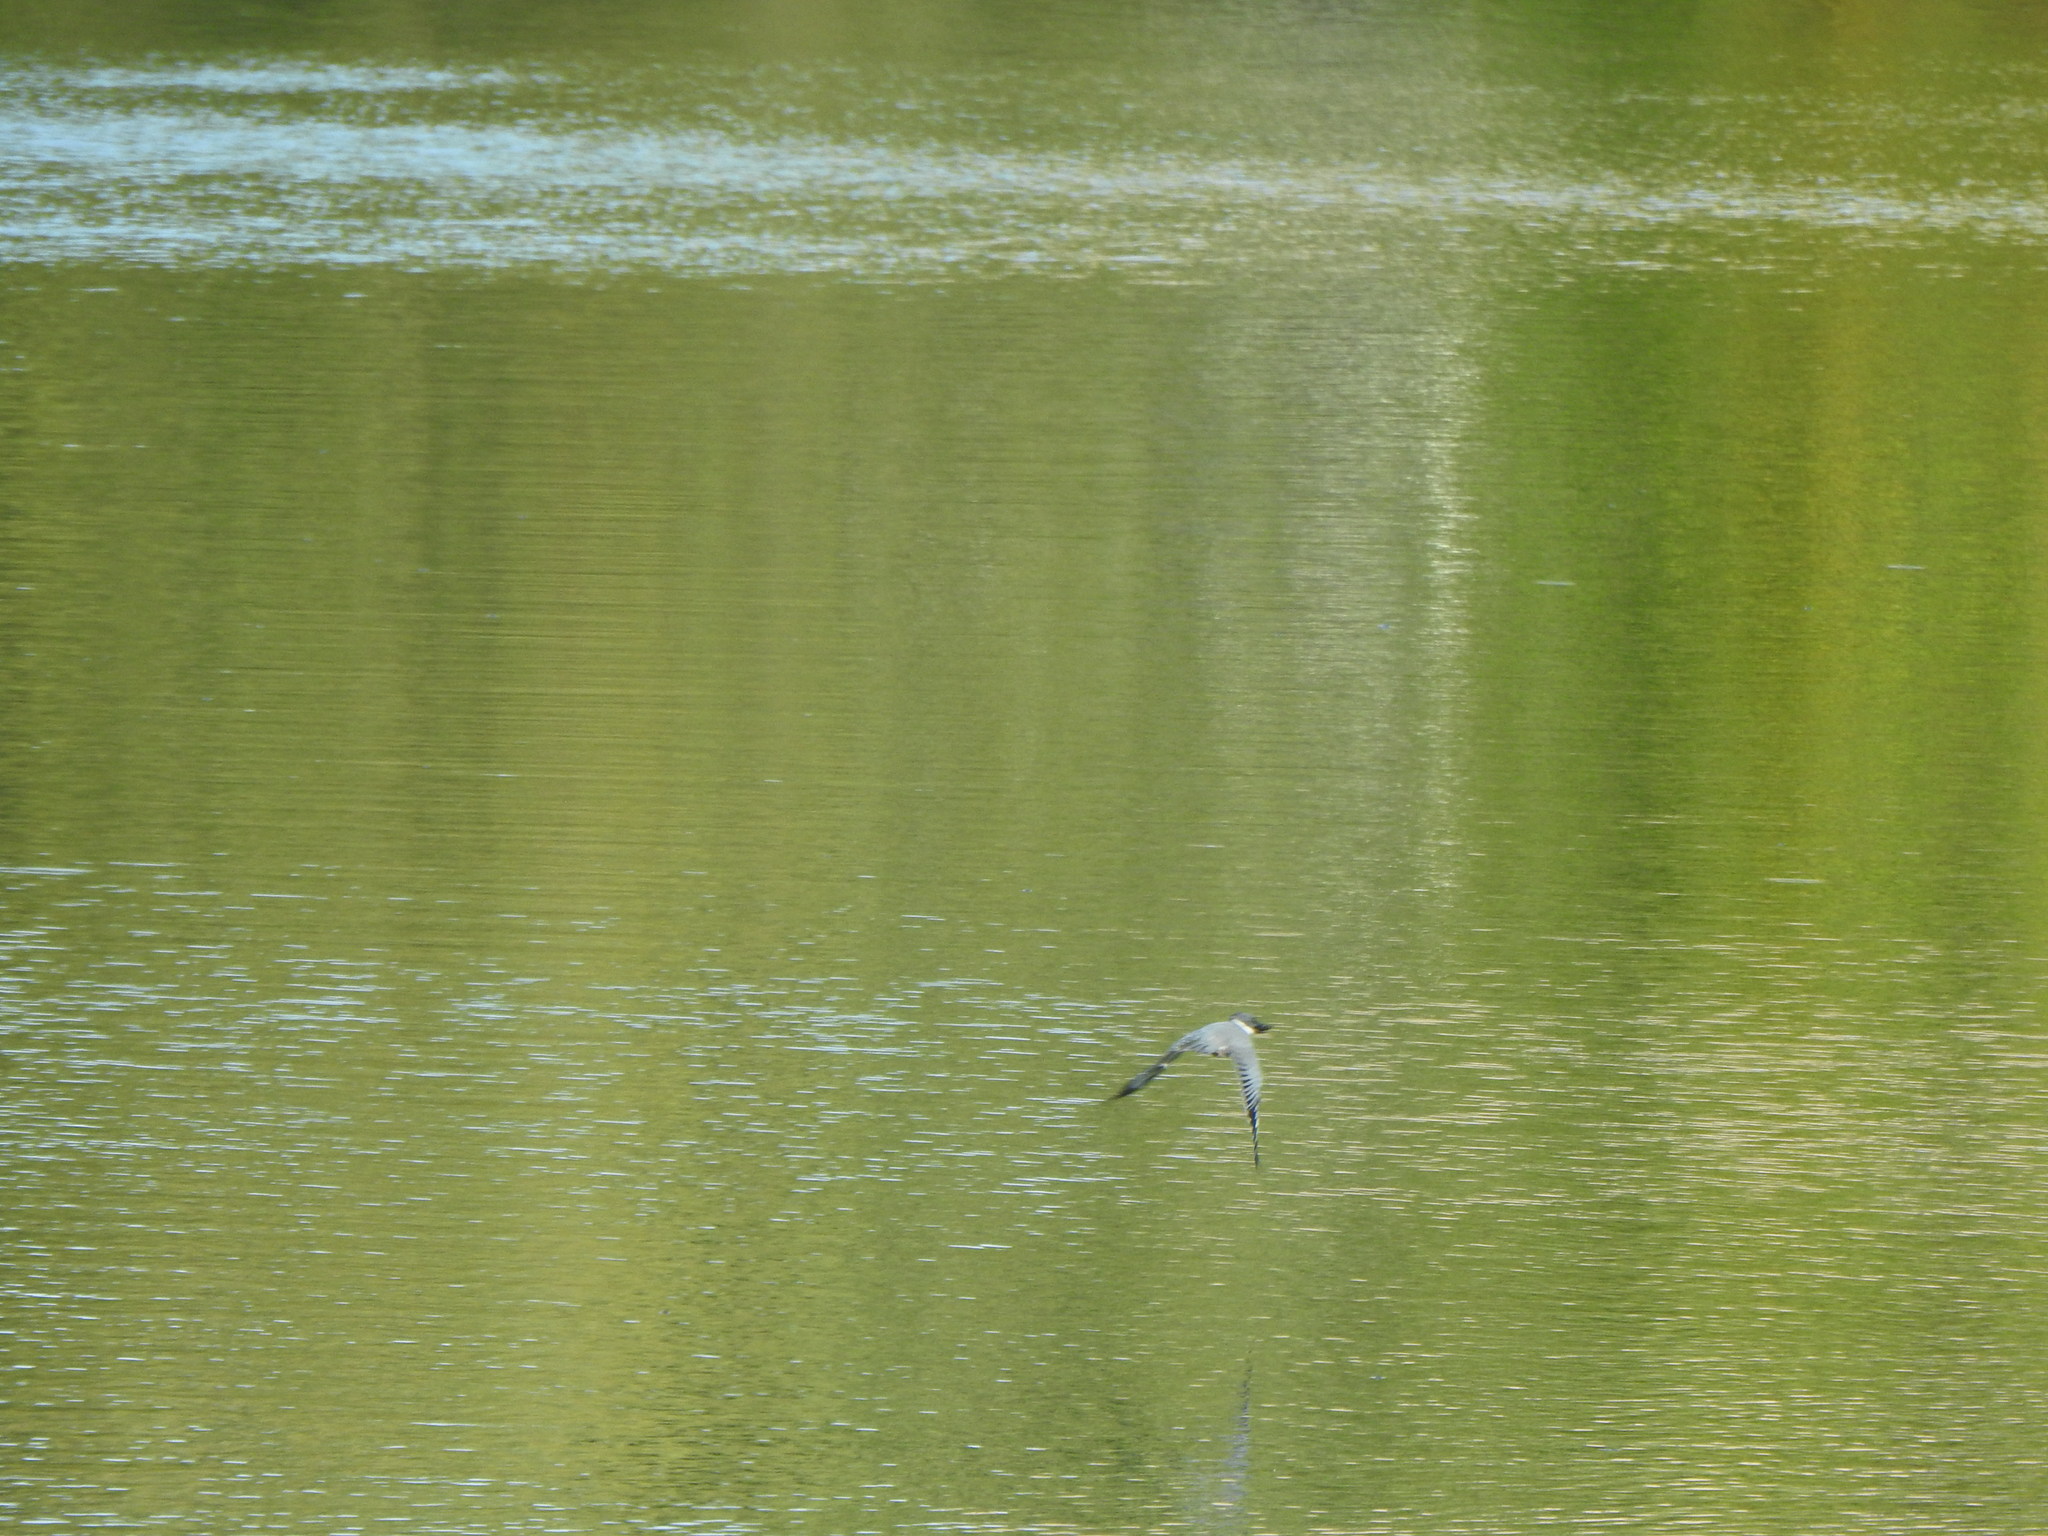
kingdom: Animalia
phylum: Chordata
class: Aves
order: Coraciiformes
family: Alcedinidae
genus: Megaceryle
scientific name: Megaceryle alcyon
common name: Belted kingfisher
